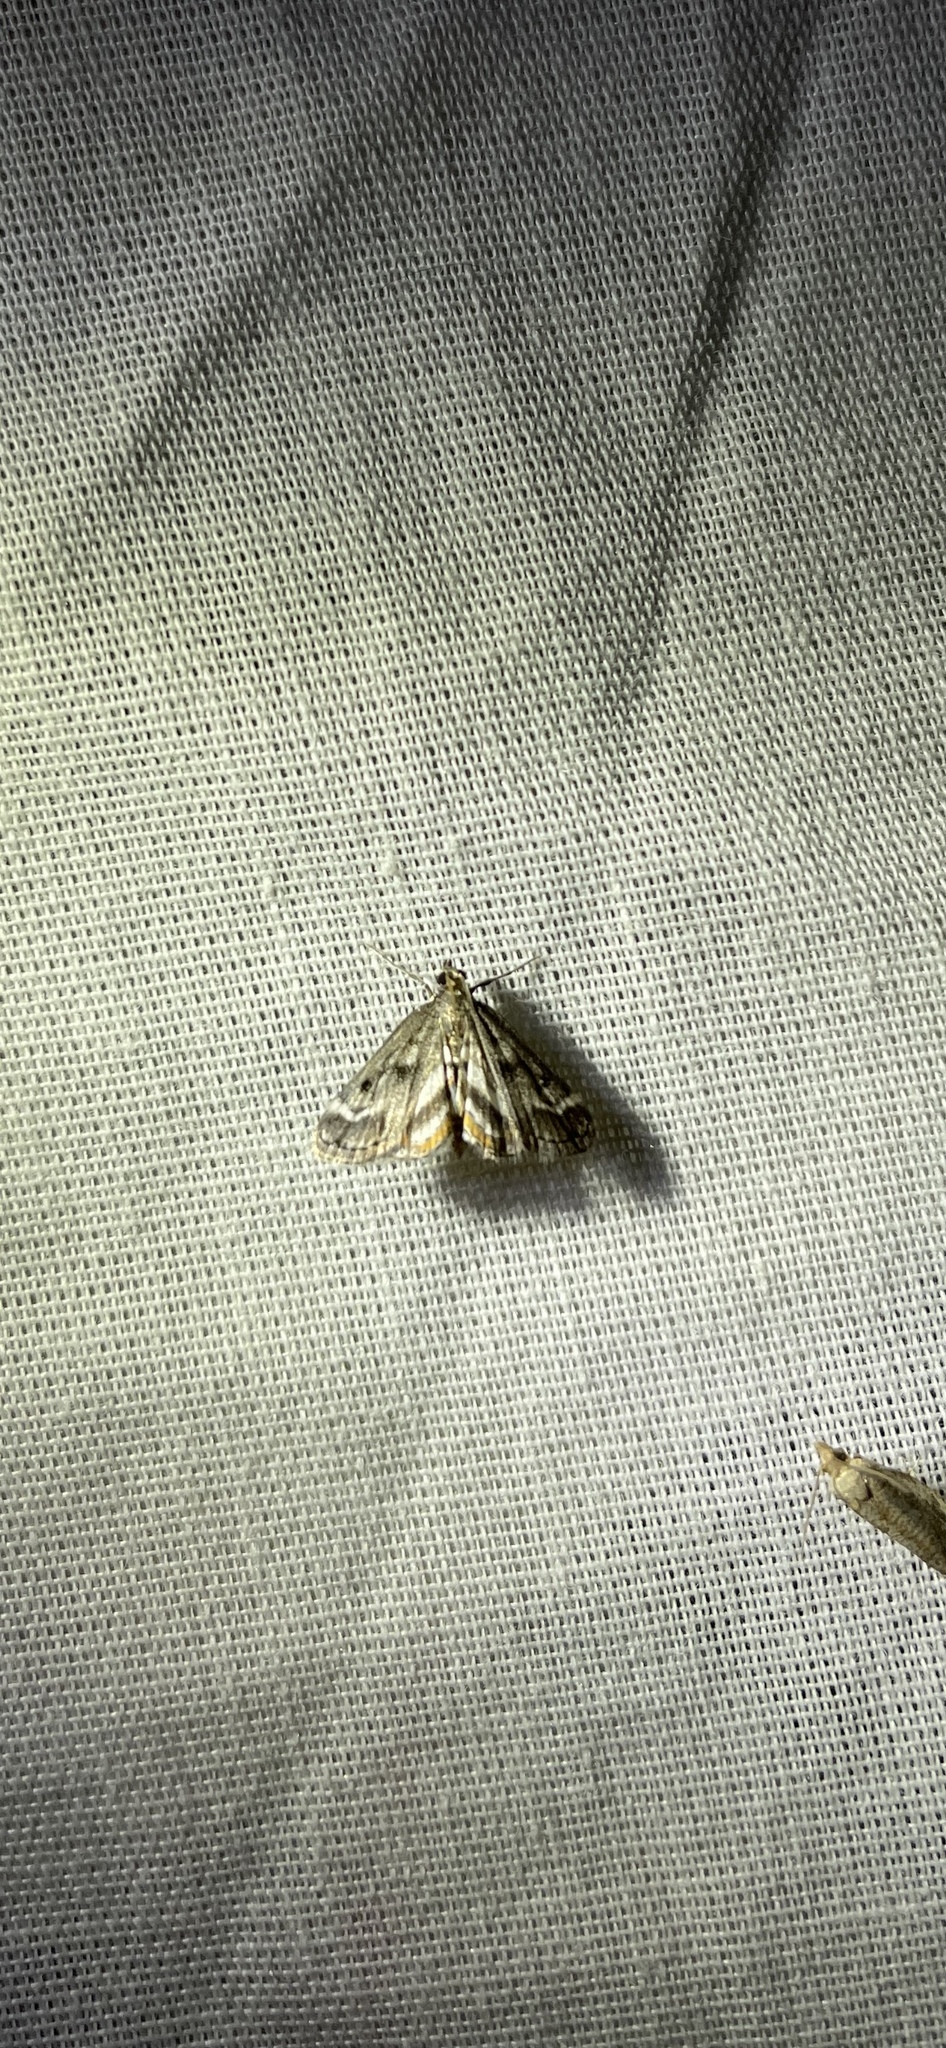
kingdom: Animalia
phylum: Arthropoda
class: Insecta
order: Lepidoptera
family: Crambidae
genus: Parapoynx
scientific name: Parapoynx obscuralis
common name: American china-mark
